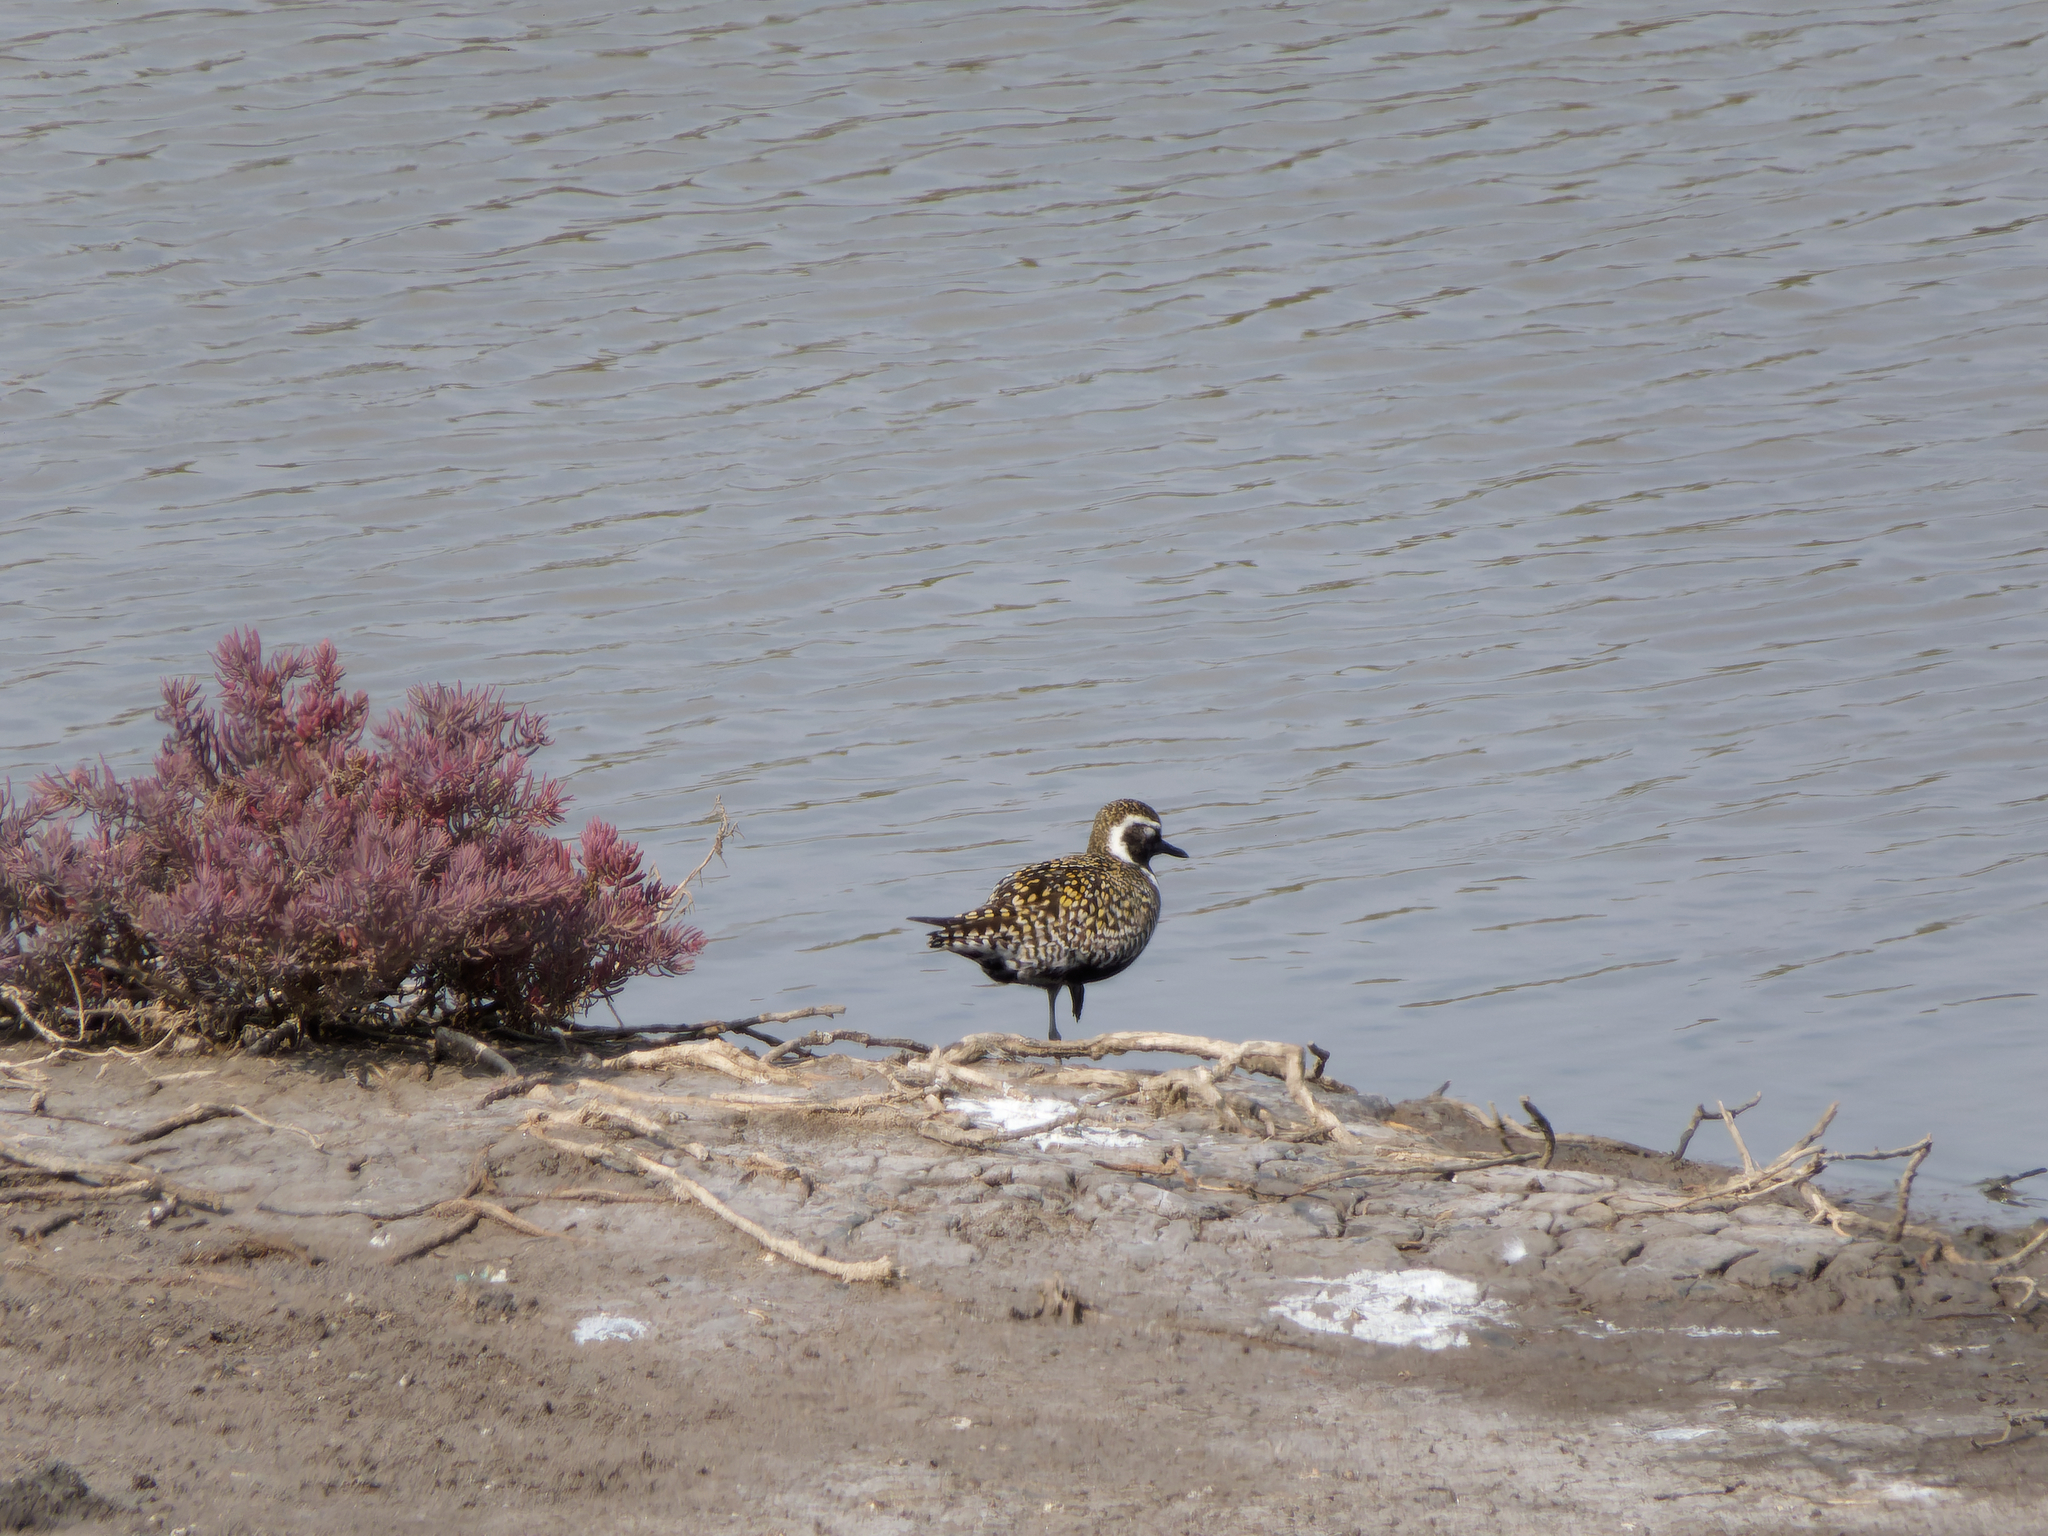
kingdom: Animalia
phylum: Chordata
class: Aves
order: Charadriiformes
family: Charadriidae
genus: Pluvialis
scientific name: Pluvialis fulva
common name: Pacific golden plover
